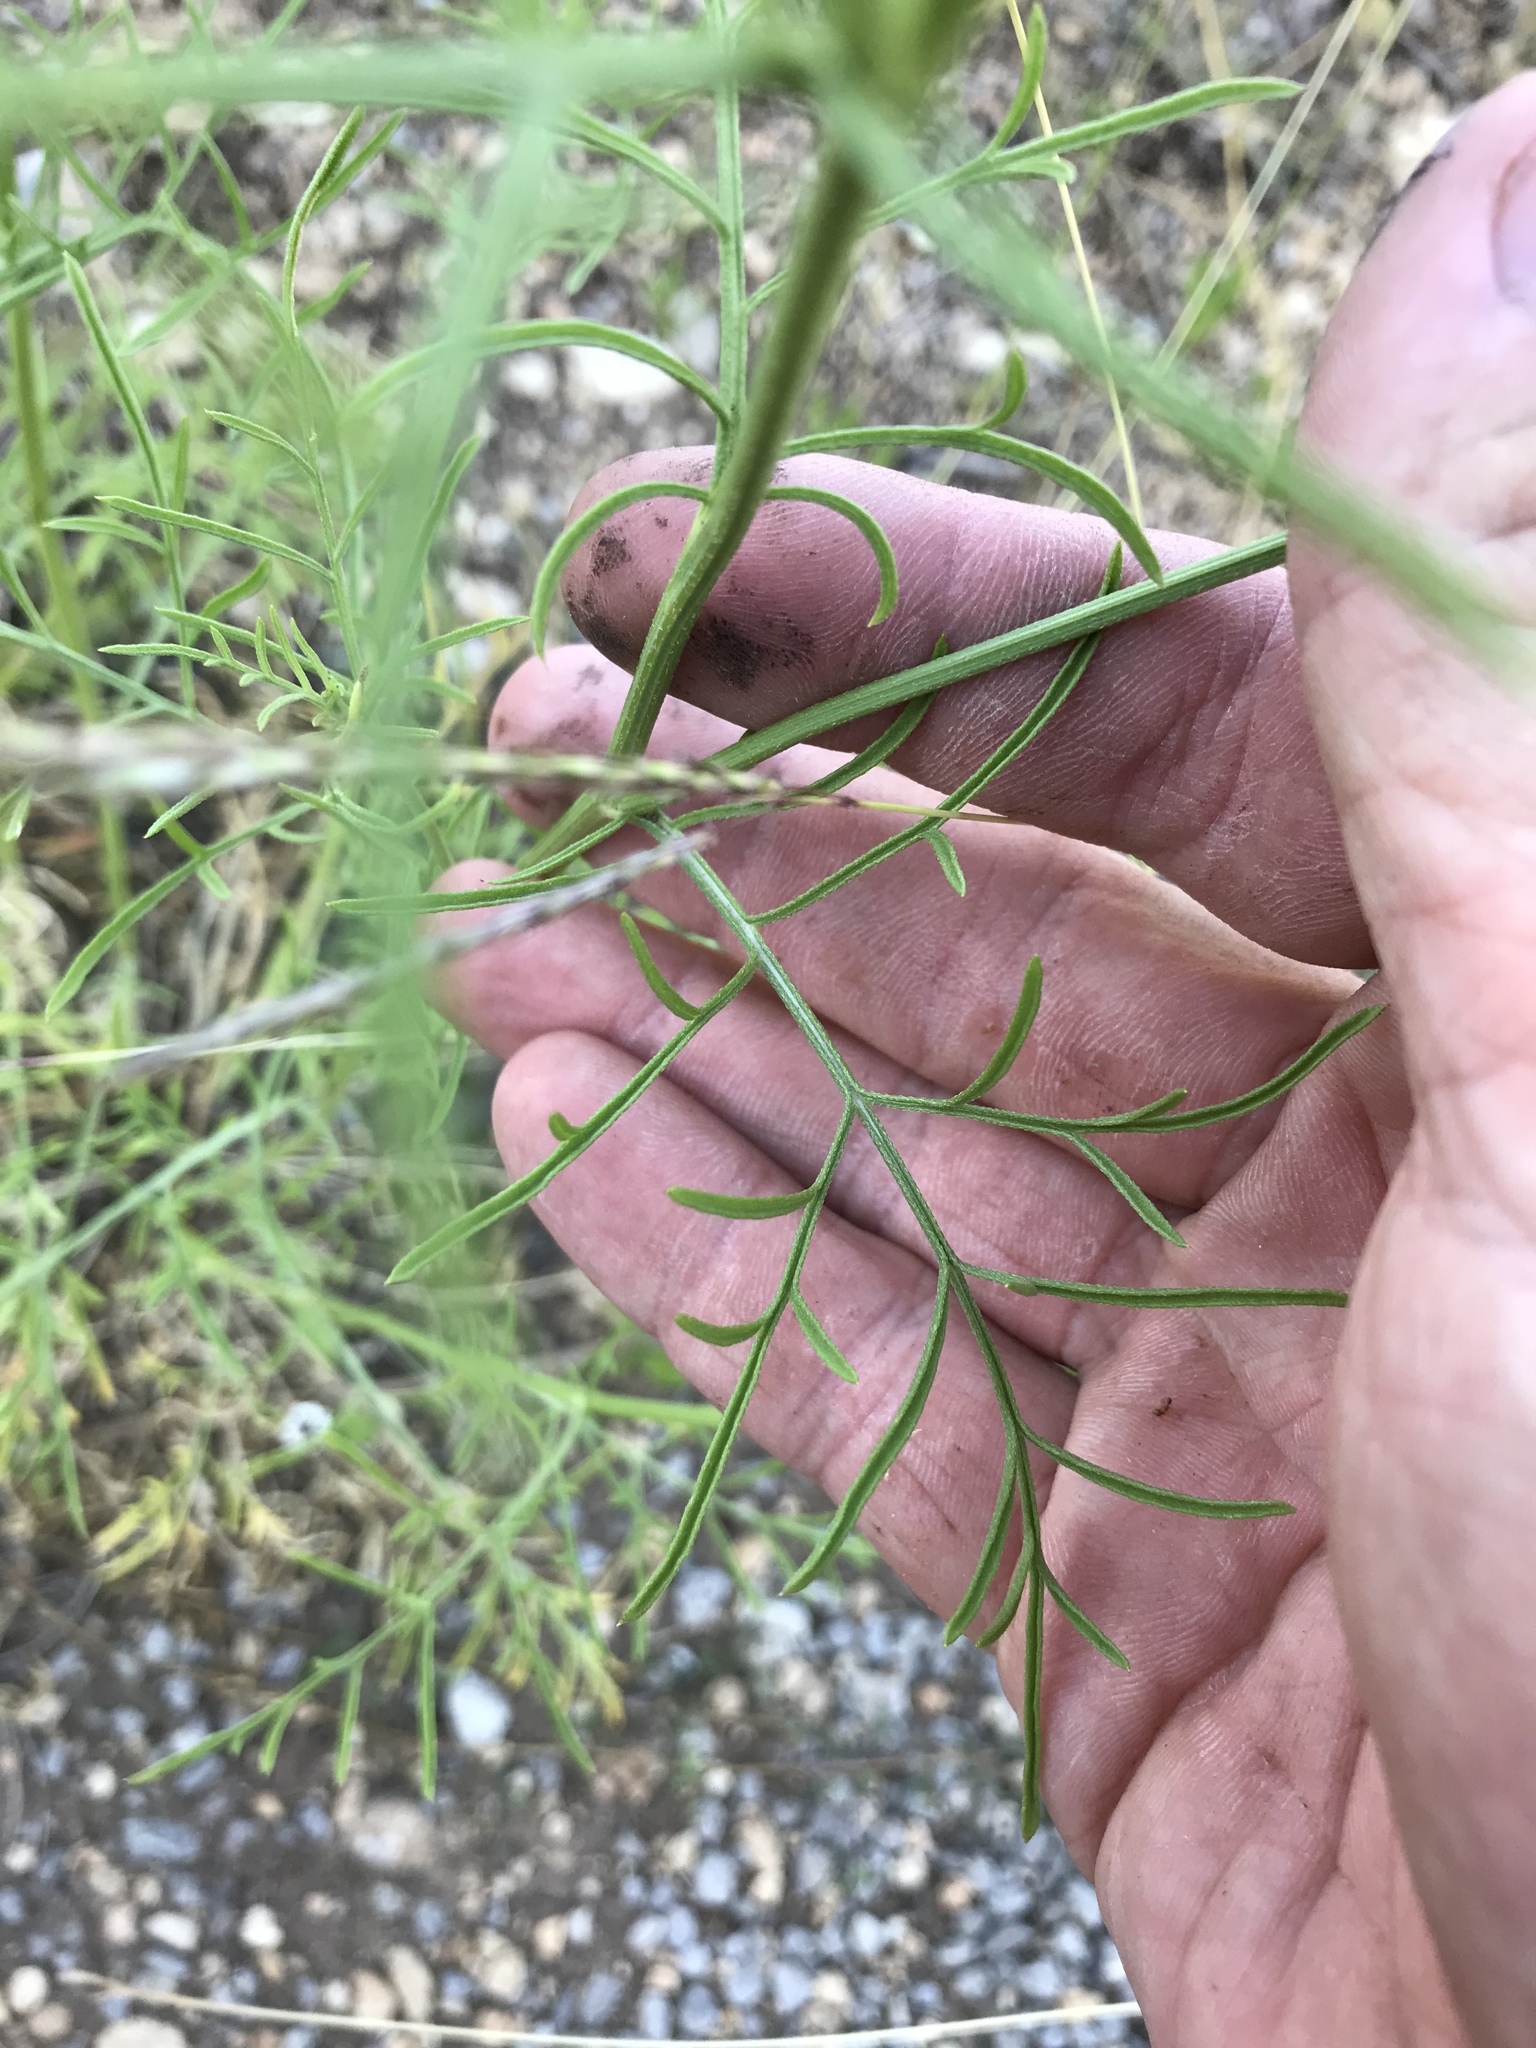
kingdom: Plantae
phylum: Tracheophyta
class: Magnoliopsida
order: Asterales
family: Asteraceae
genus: Ratibida
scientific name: Ratibida columnifera
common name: Prairie coneflower
